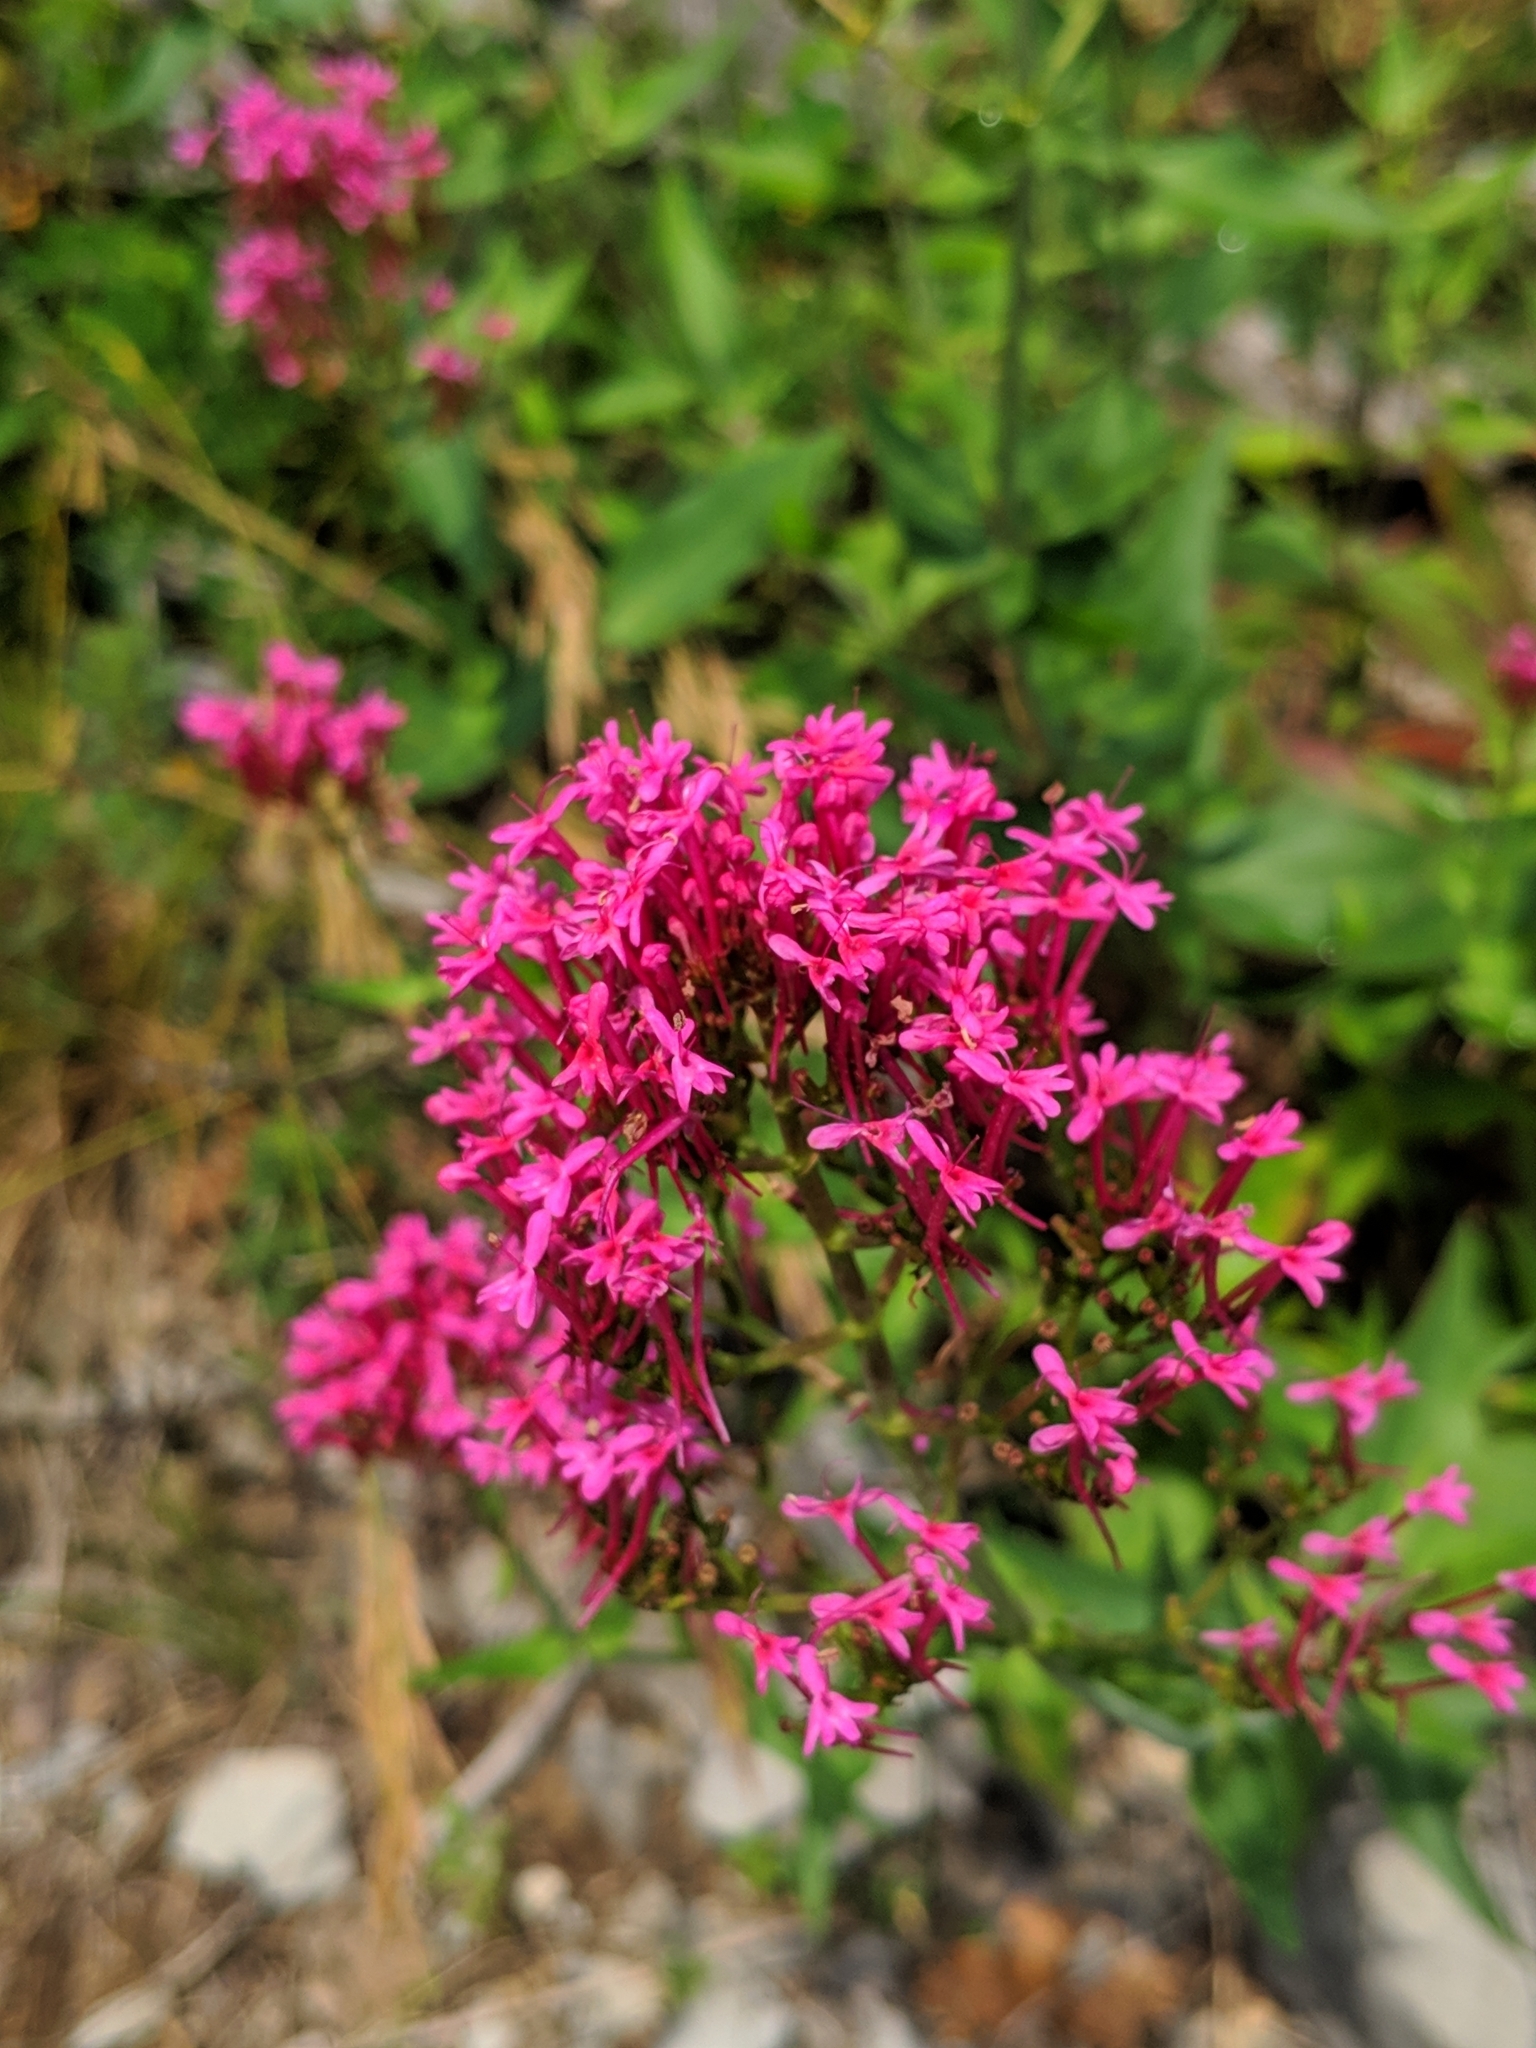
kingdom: Plantae
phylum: Tracheophyta
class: Magnoliopsida
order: Dipsacales
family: Caprifoliaceae
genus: Centranthus
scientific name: Centranthus ruber
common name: Red valerian
